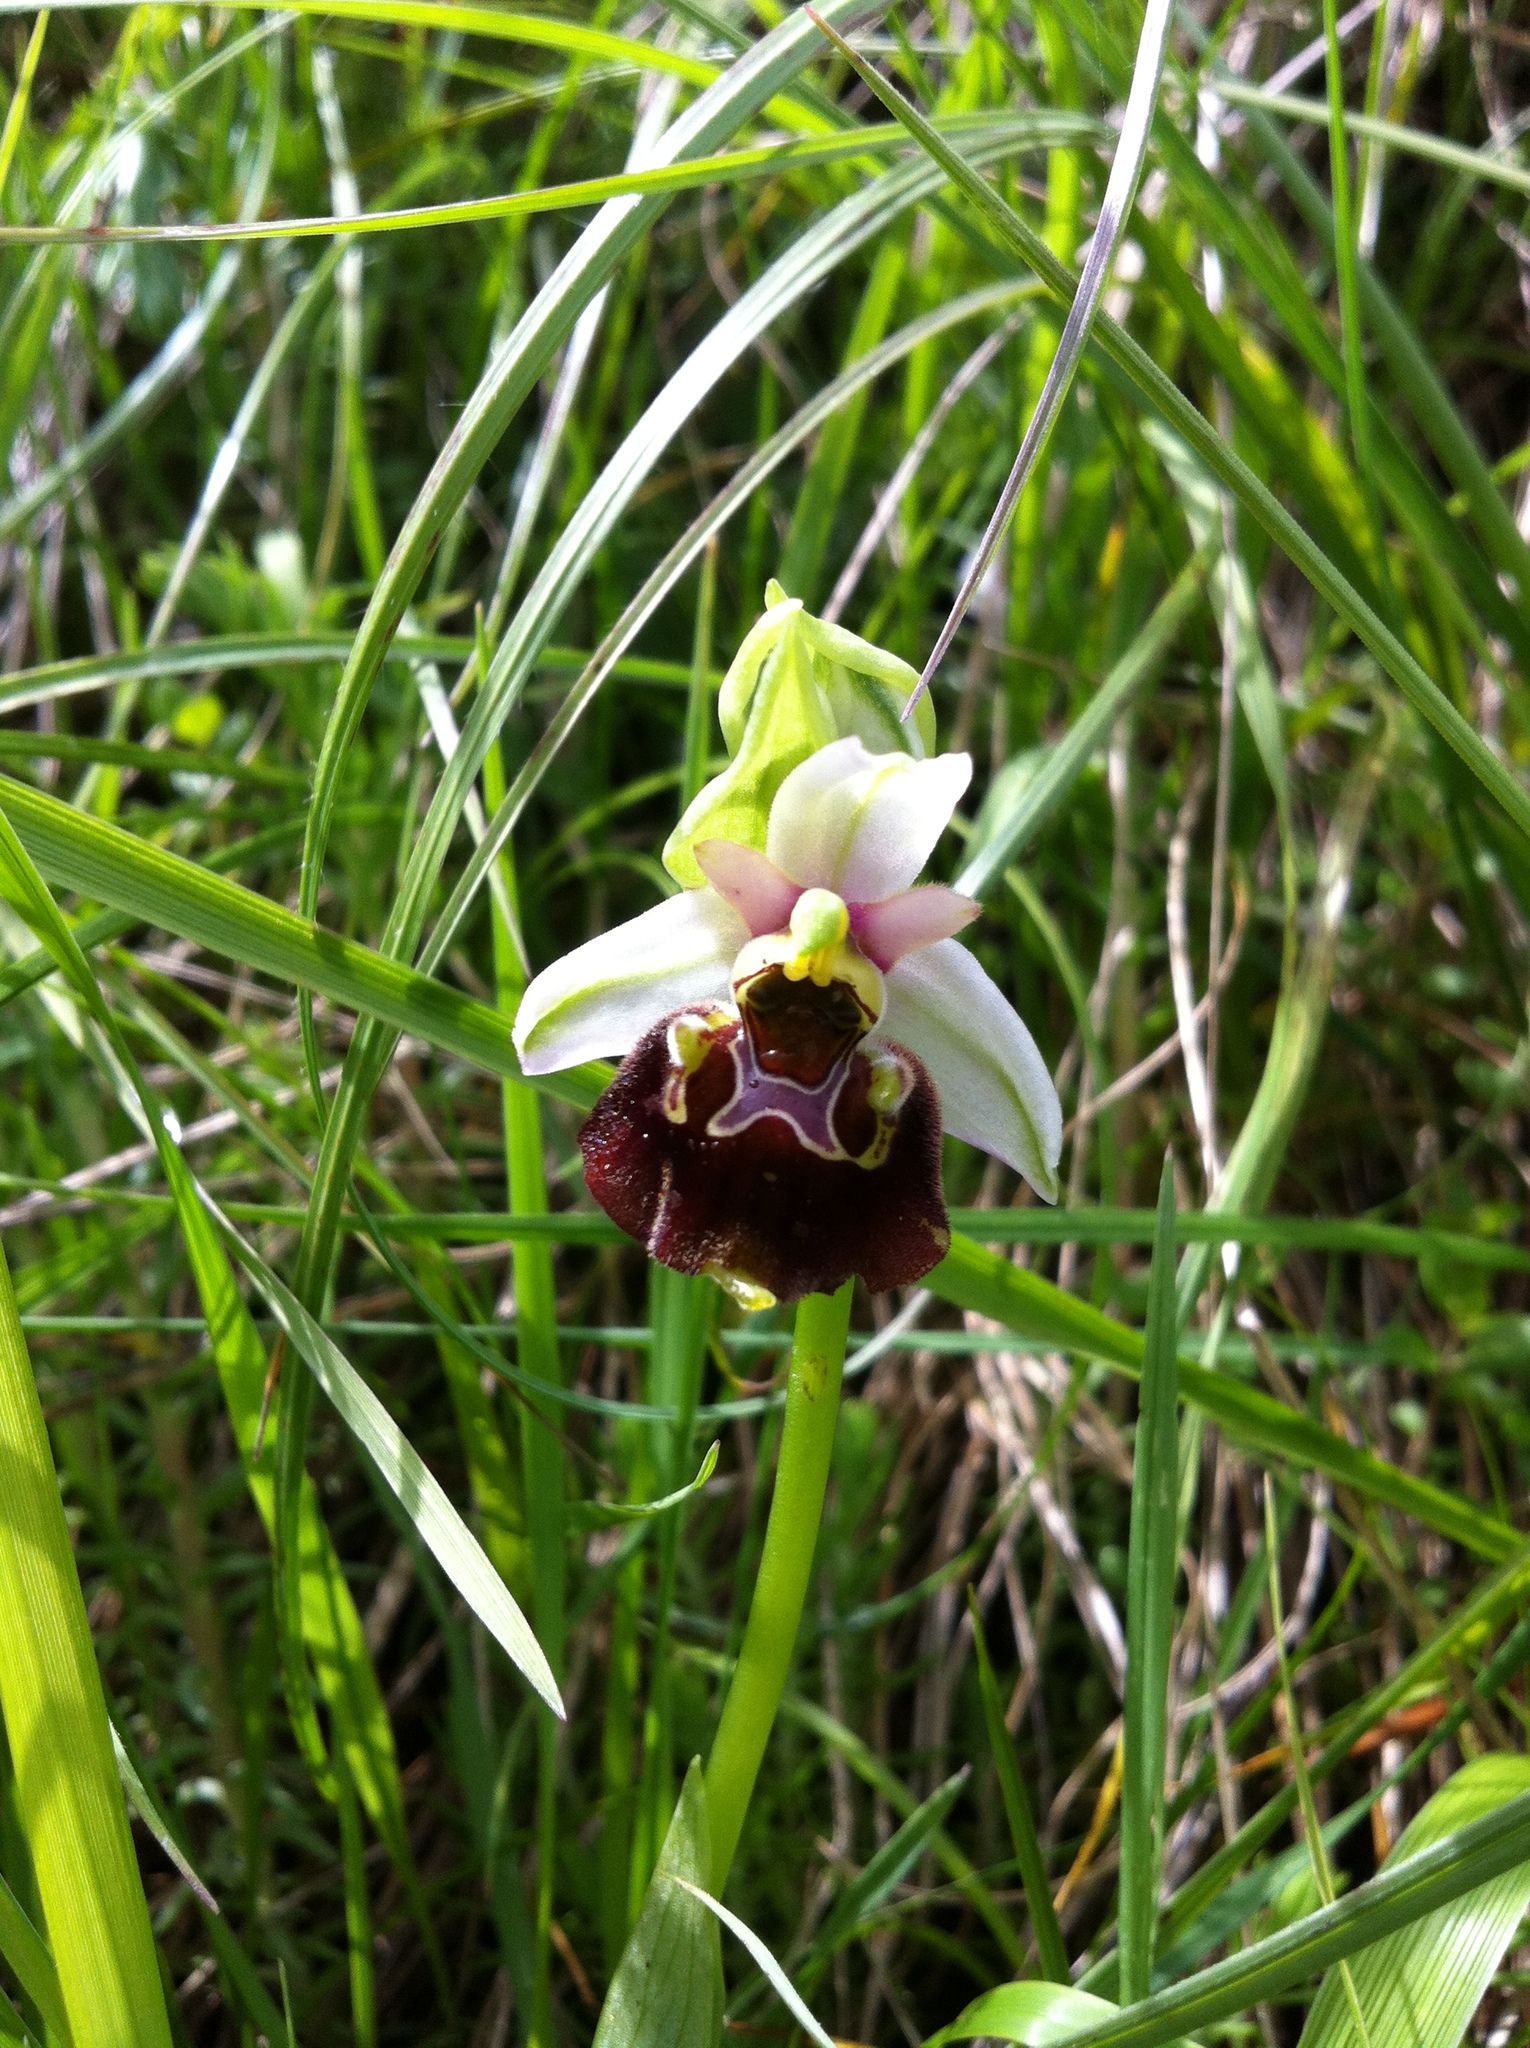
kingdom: Plantae
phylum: Tracheophyta
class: Liliopsida
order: Asparagales
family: Orchidaceae
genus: Ophrys
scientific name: Ophrys holosericea
